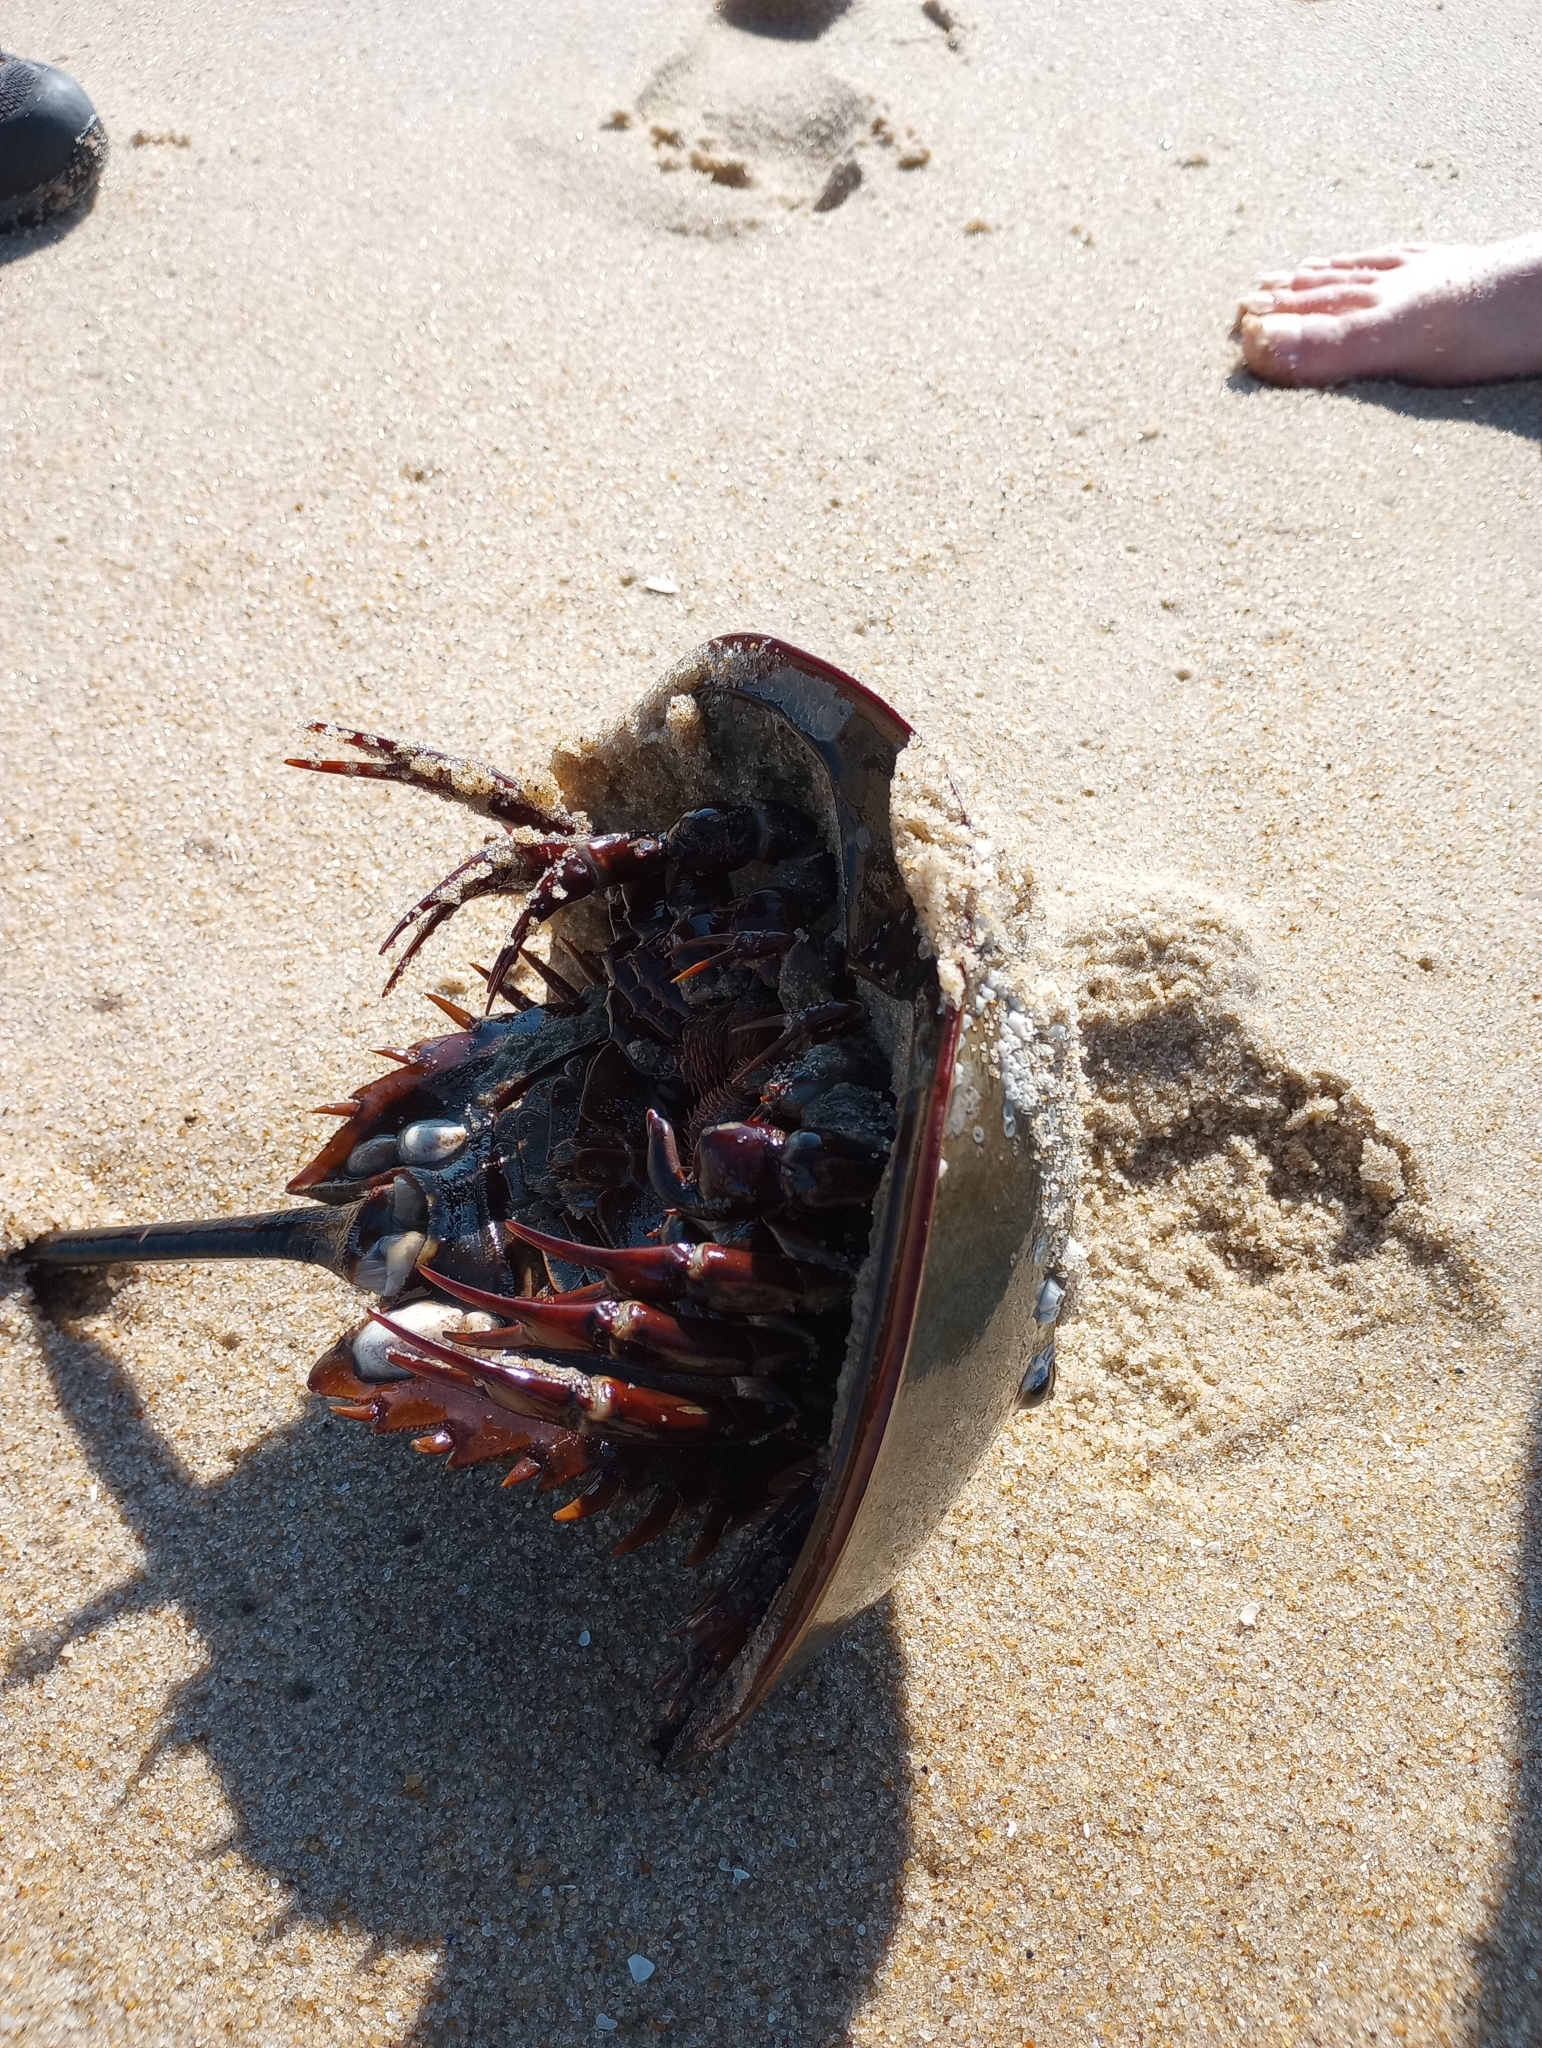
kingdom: Animalia
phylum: Arthropoda
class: Merostomata
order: Xiphosurida
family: Limulidae
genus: Limulus
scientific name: Limulus polyphemus
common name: Horseshoe crab
